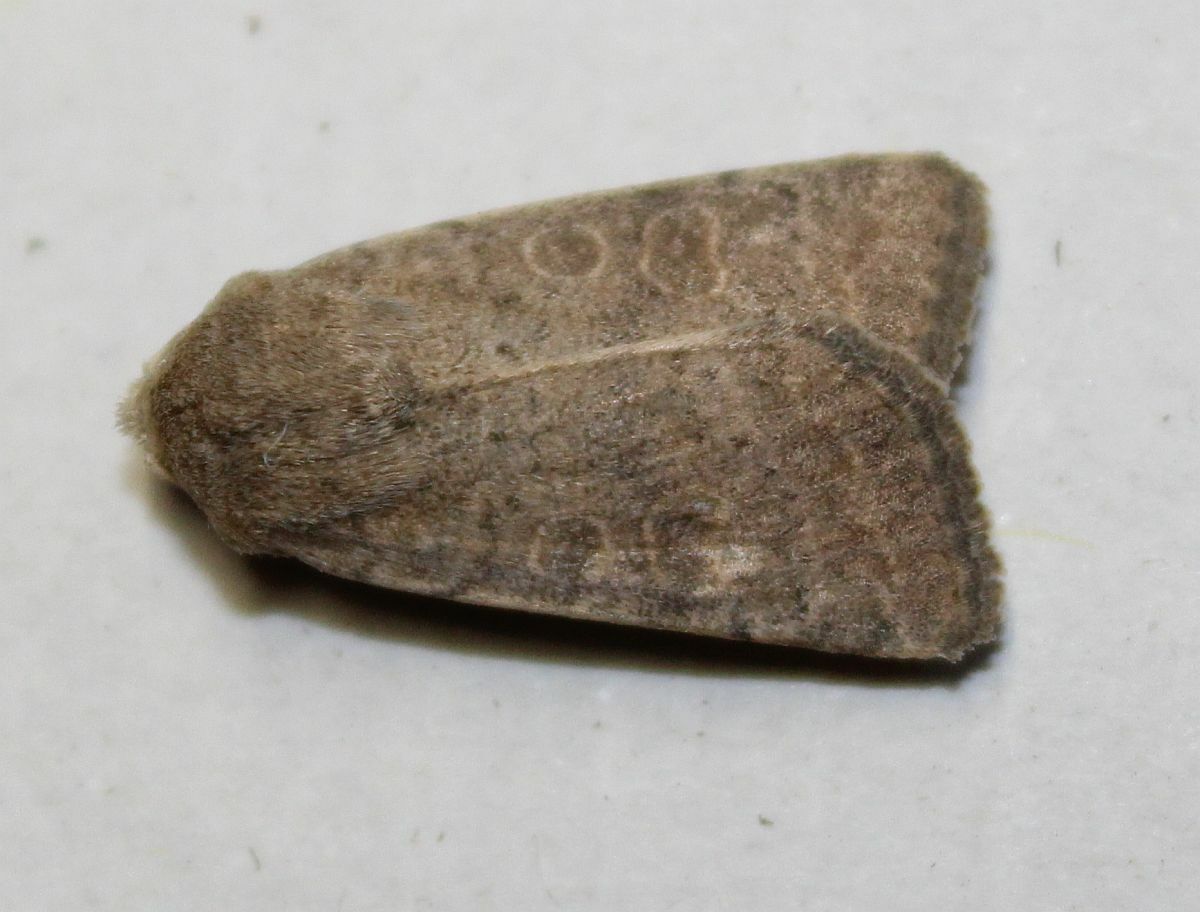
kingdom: Animalia
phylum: Arthropoda
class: Insecta
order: Lepidoptera
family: Noctuidae
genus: Hoplodrina
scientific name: Hoplodrina ambigua
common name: Vine's rustic
